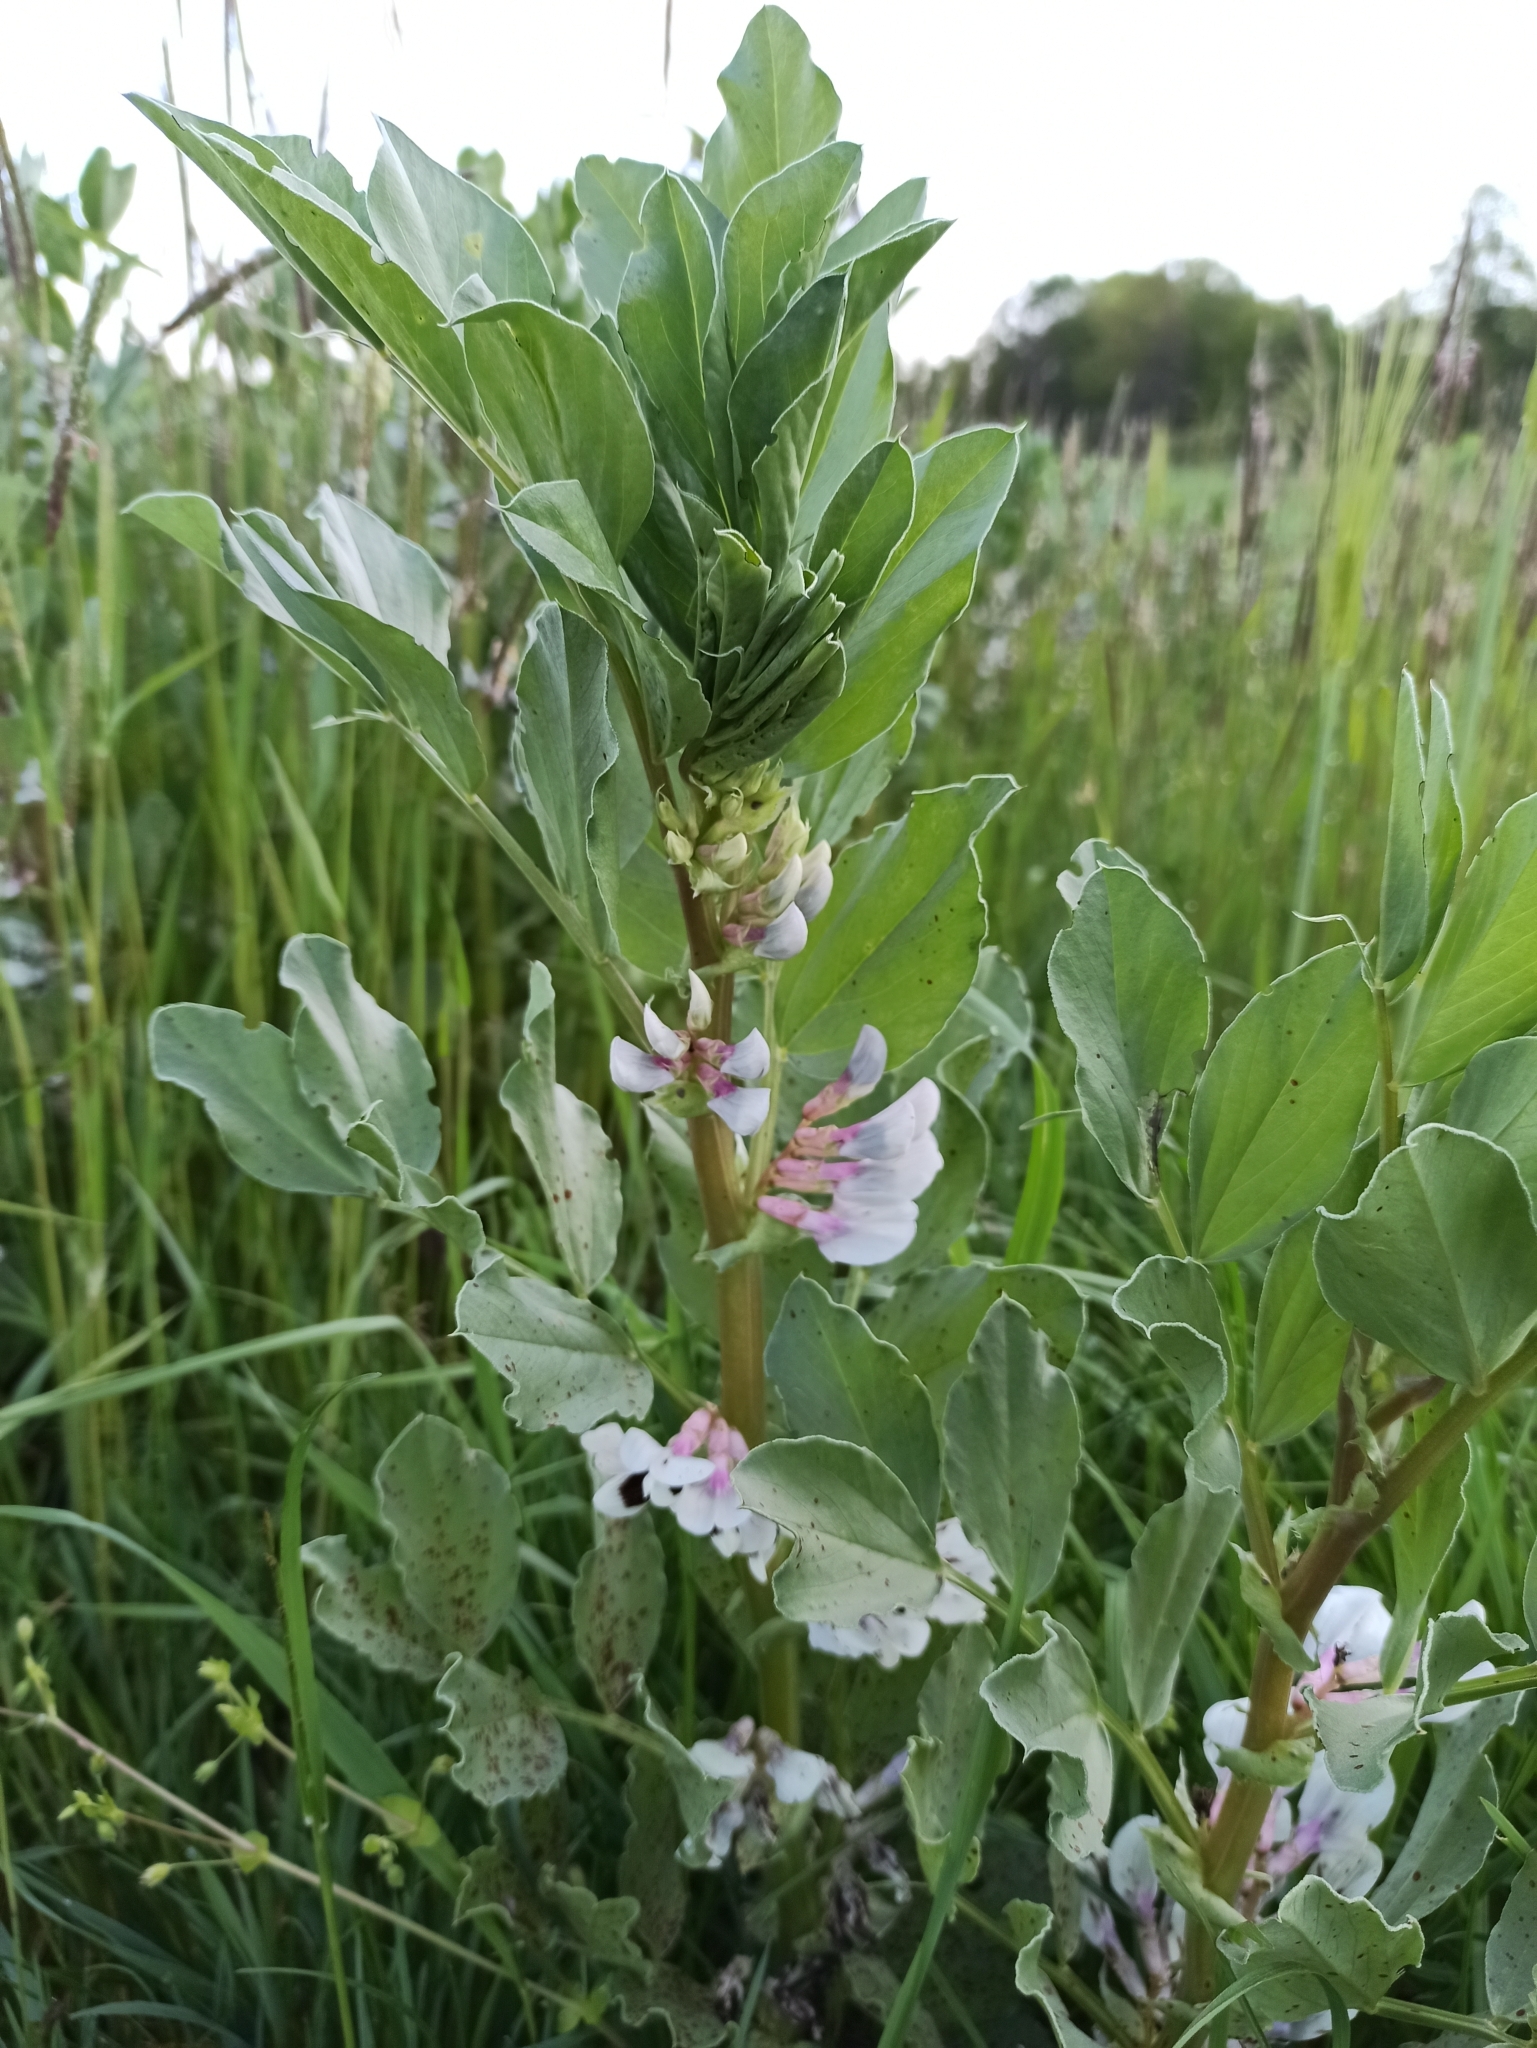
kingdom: Plantae
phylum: Tracheophyta
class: Magnoliopsida
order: Fabales
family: Fabaceae
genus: Vicia
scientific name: Vicia faba
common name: Broad bean
